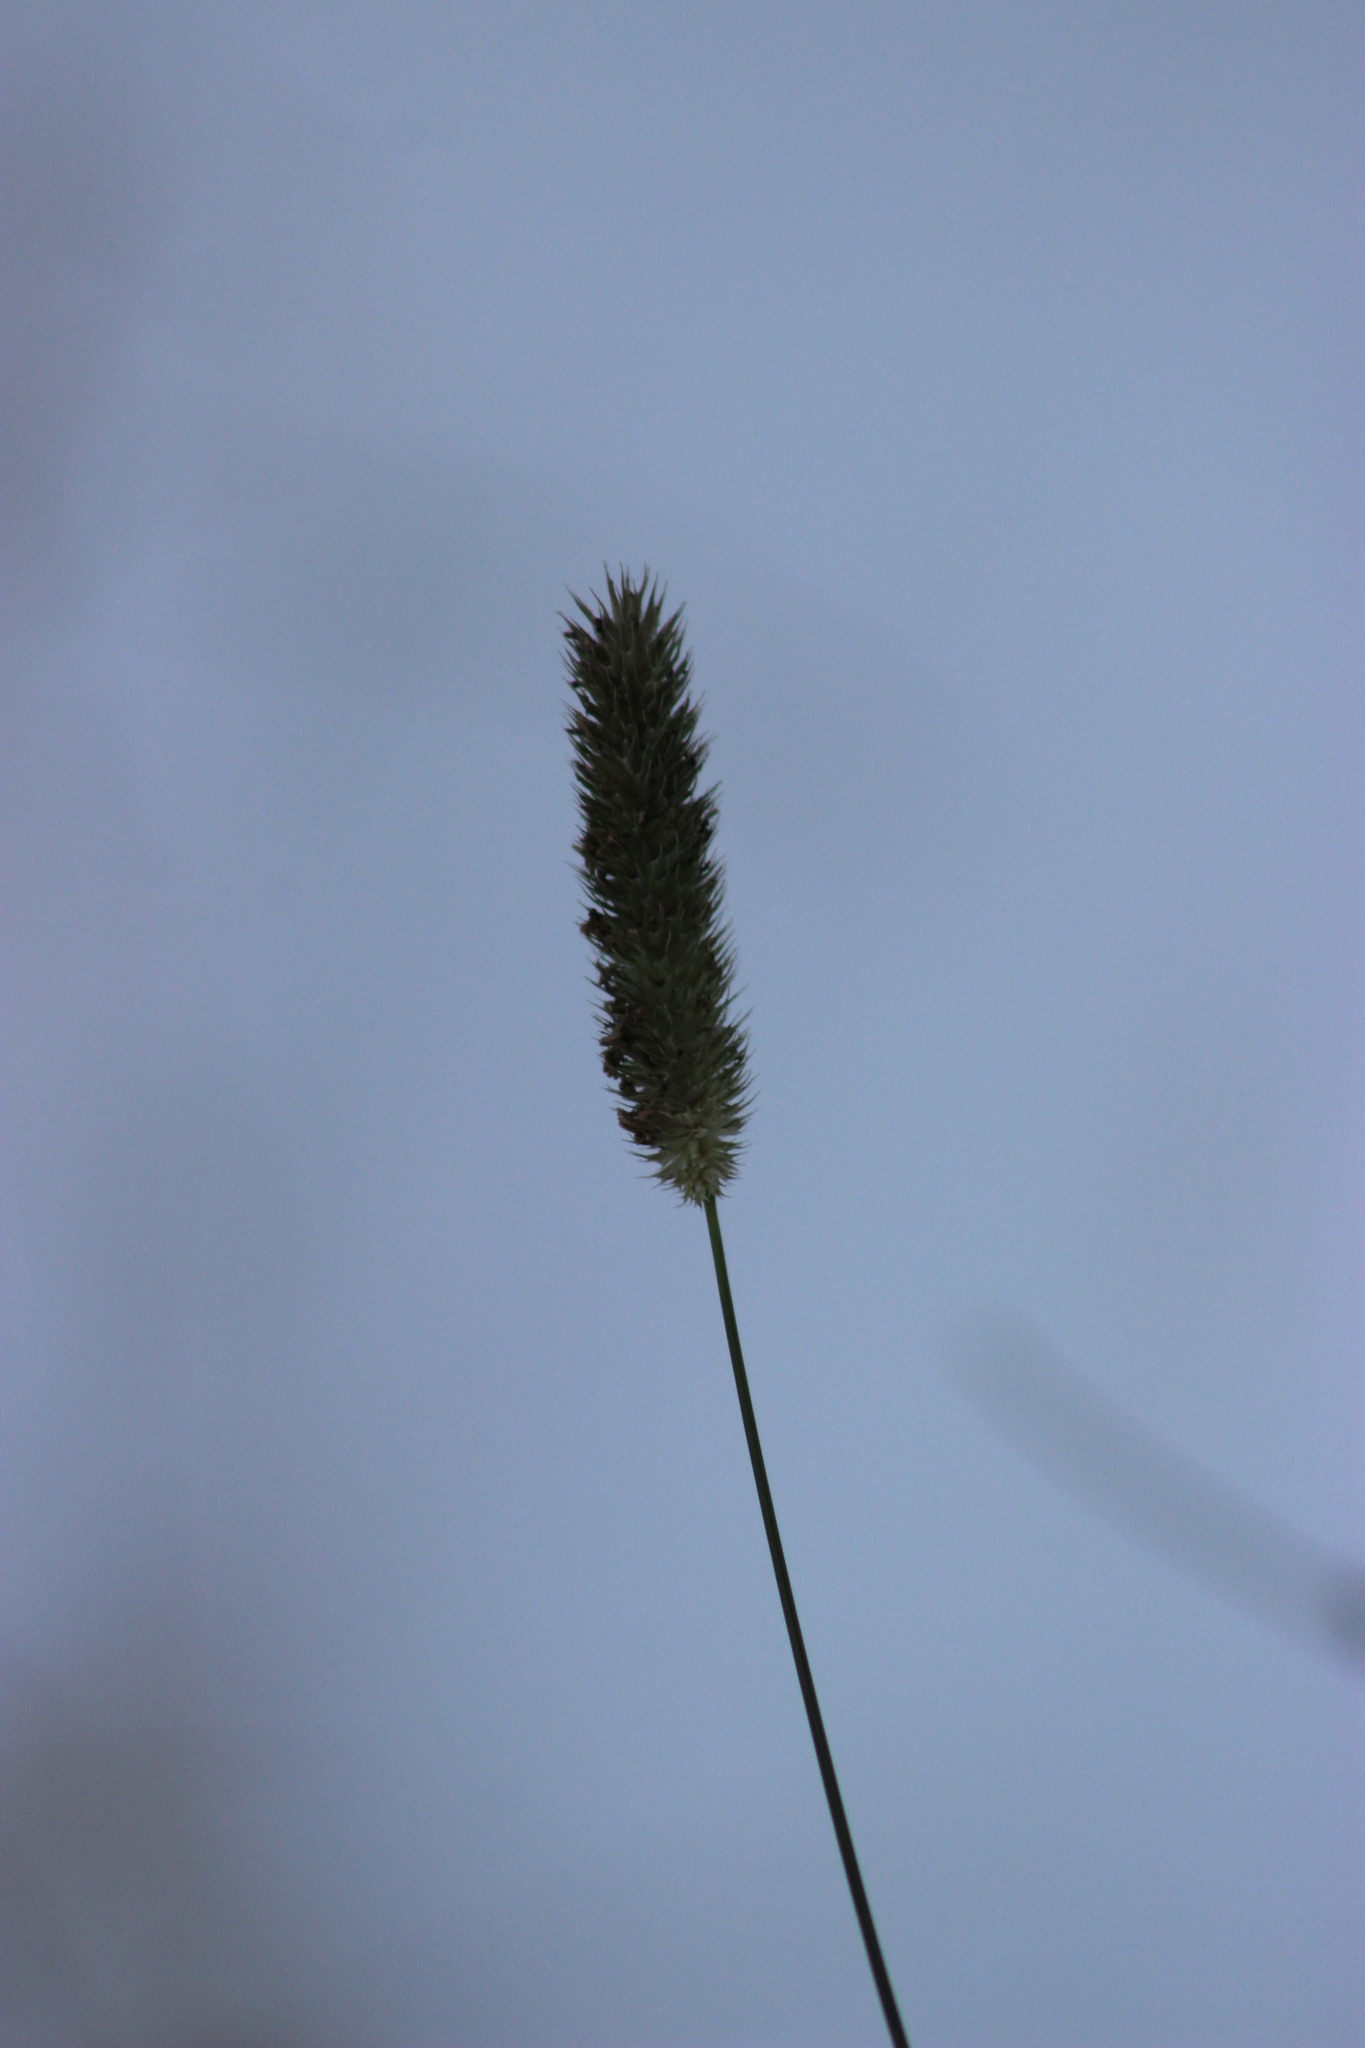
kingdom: Plantae
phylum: Tracheophyta
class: Liliopsida
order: Poales
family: Poaceae
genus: Phleum
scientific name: Phleum pratense
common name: Timothy grass
